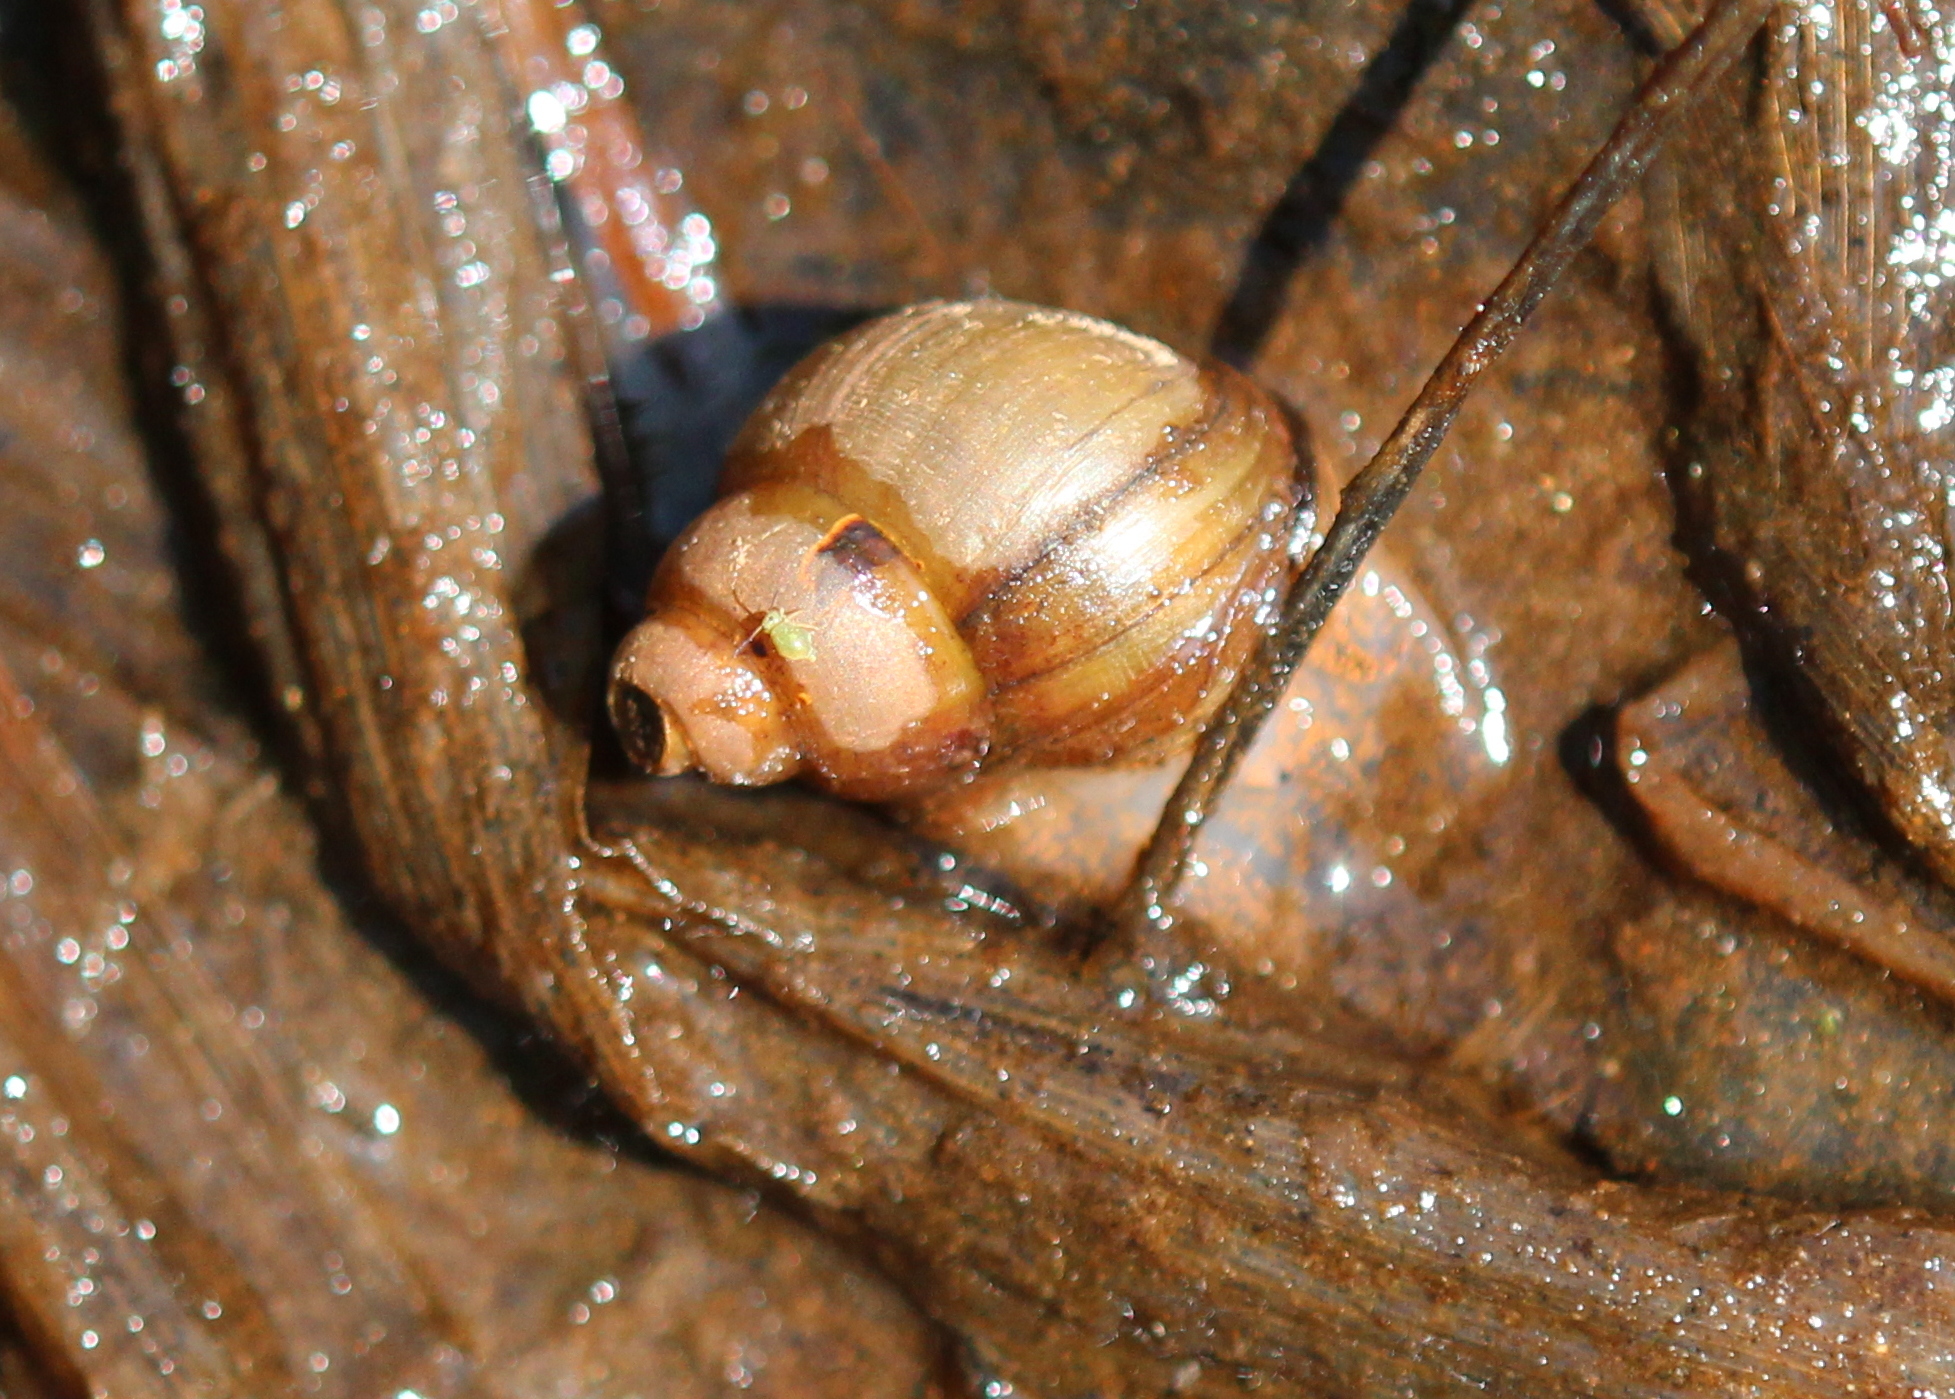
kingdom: Animalia
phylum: Mollusca
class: Gastropoda
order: Architaenioglossa
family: Viviparidae
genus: Campeloma
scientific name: Campeloma decisum
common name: Pointed campeloma
